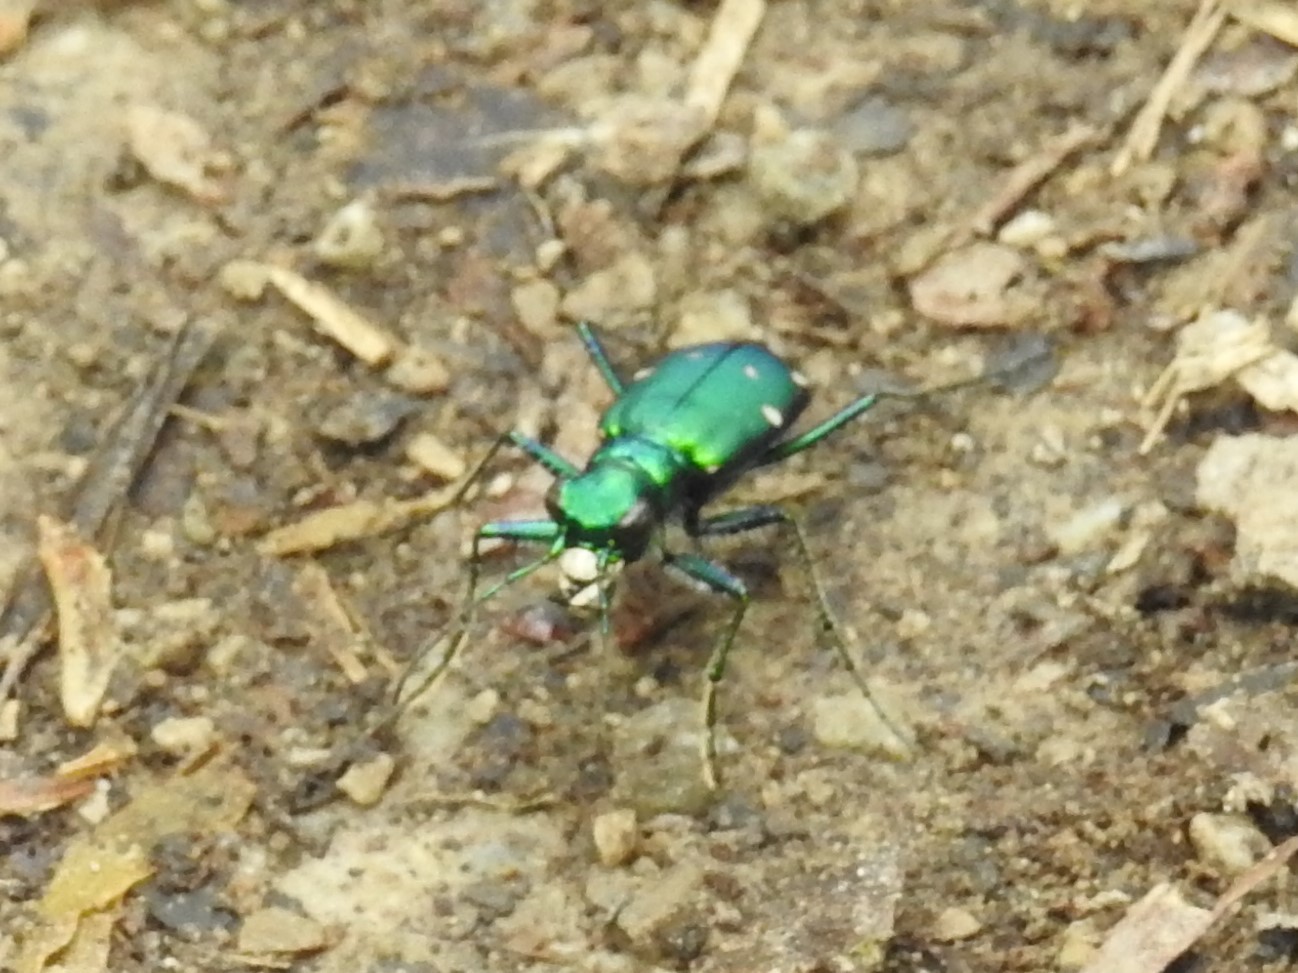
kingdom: Animalia
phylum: Arthropoda
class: Insecta
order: Coleoptera
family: Carabidae
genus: Cicindela
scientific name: Cicindela sexguttata
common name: Six-spotted tiger beetle
